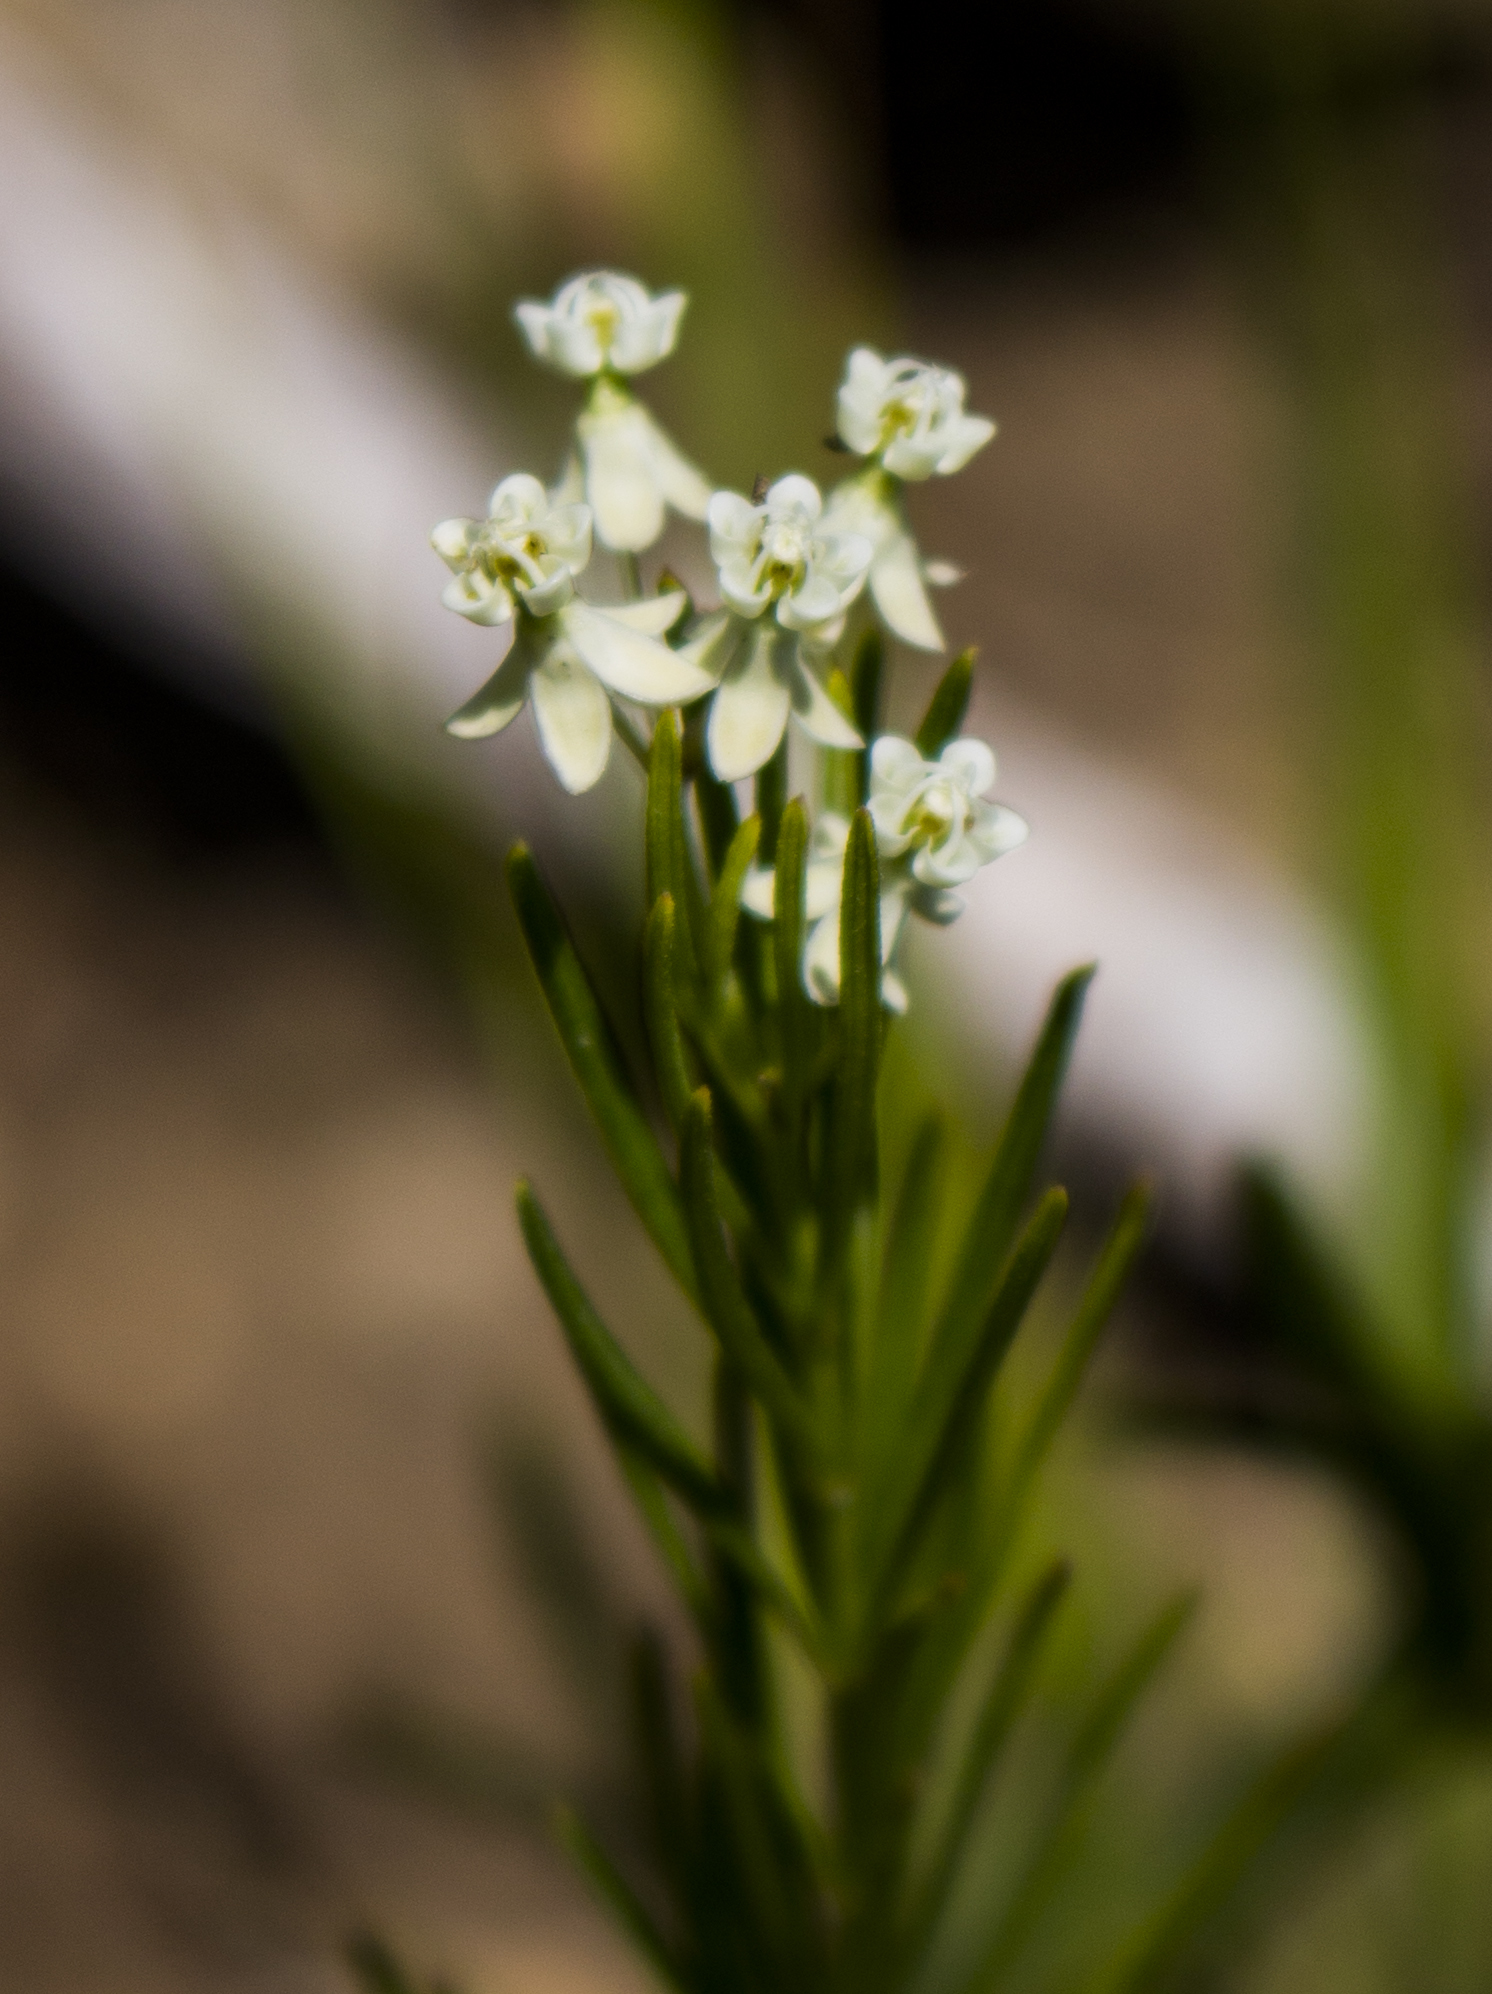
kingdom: Plantae
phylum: Tracheophyta
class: Magnoliopsida
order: Gentianales
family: Apocynaceae
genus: Asclepias
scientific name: Asclepias verticillata
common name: Eastern whorled milkweed
